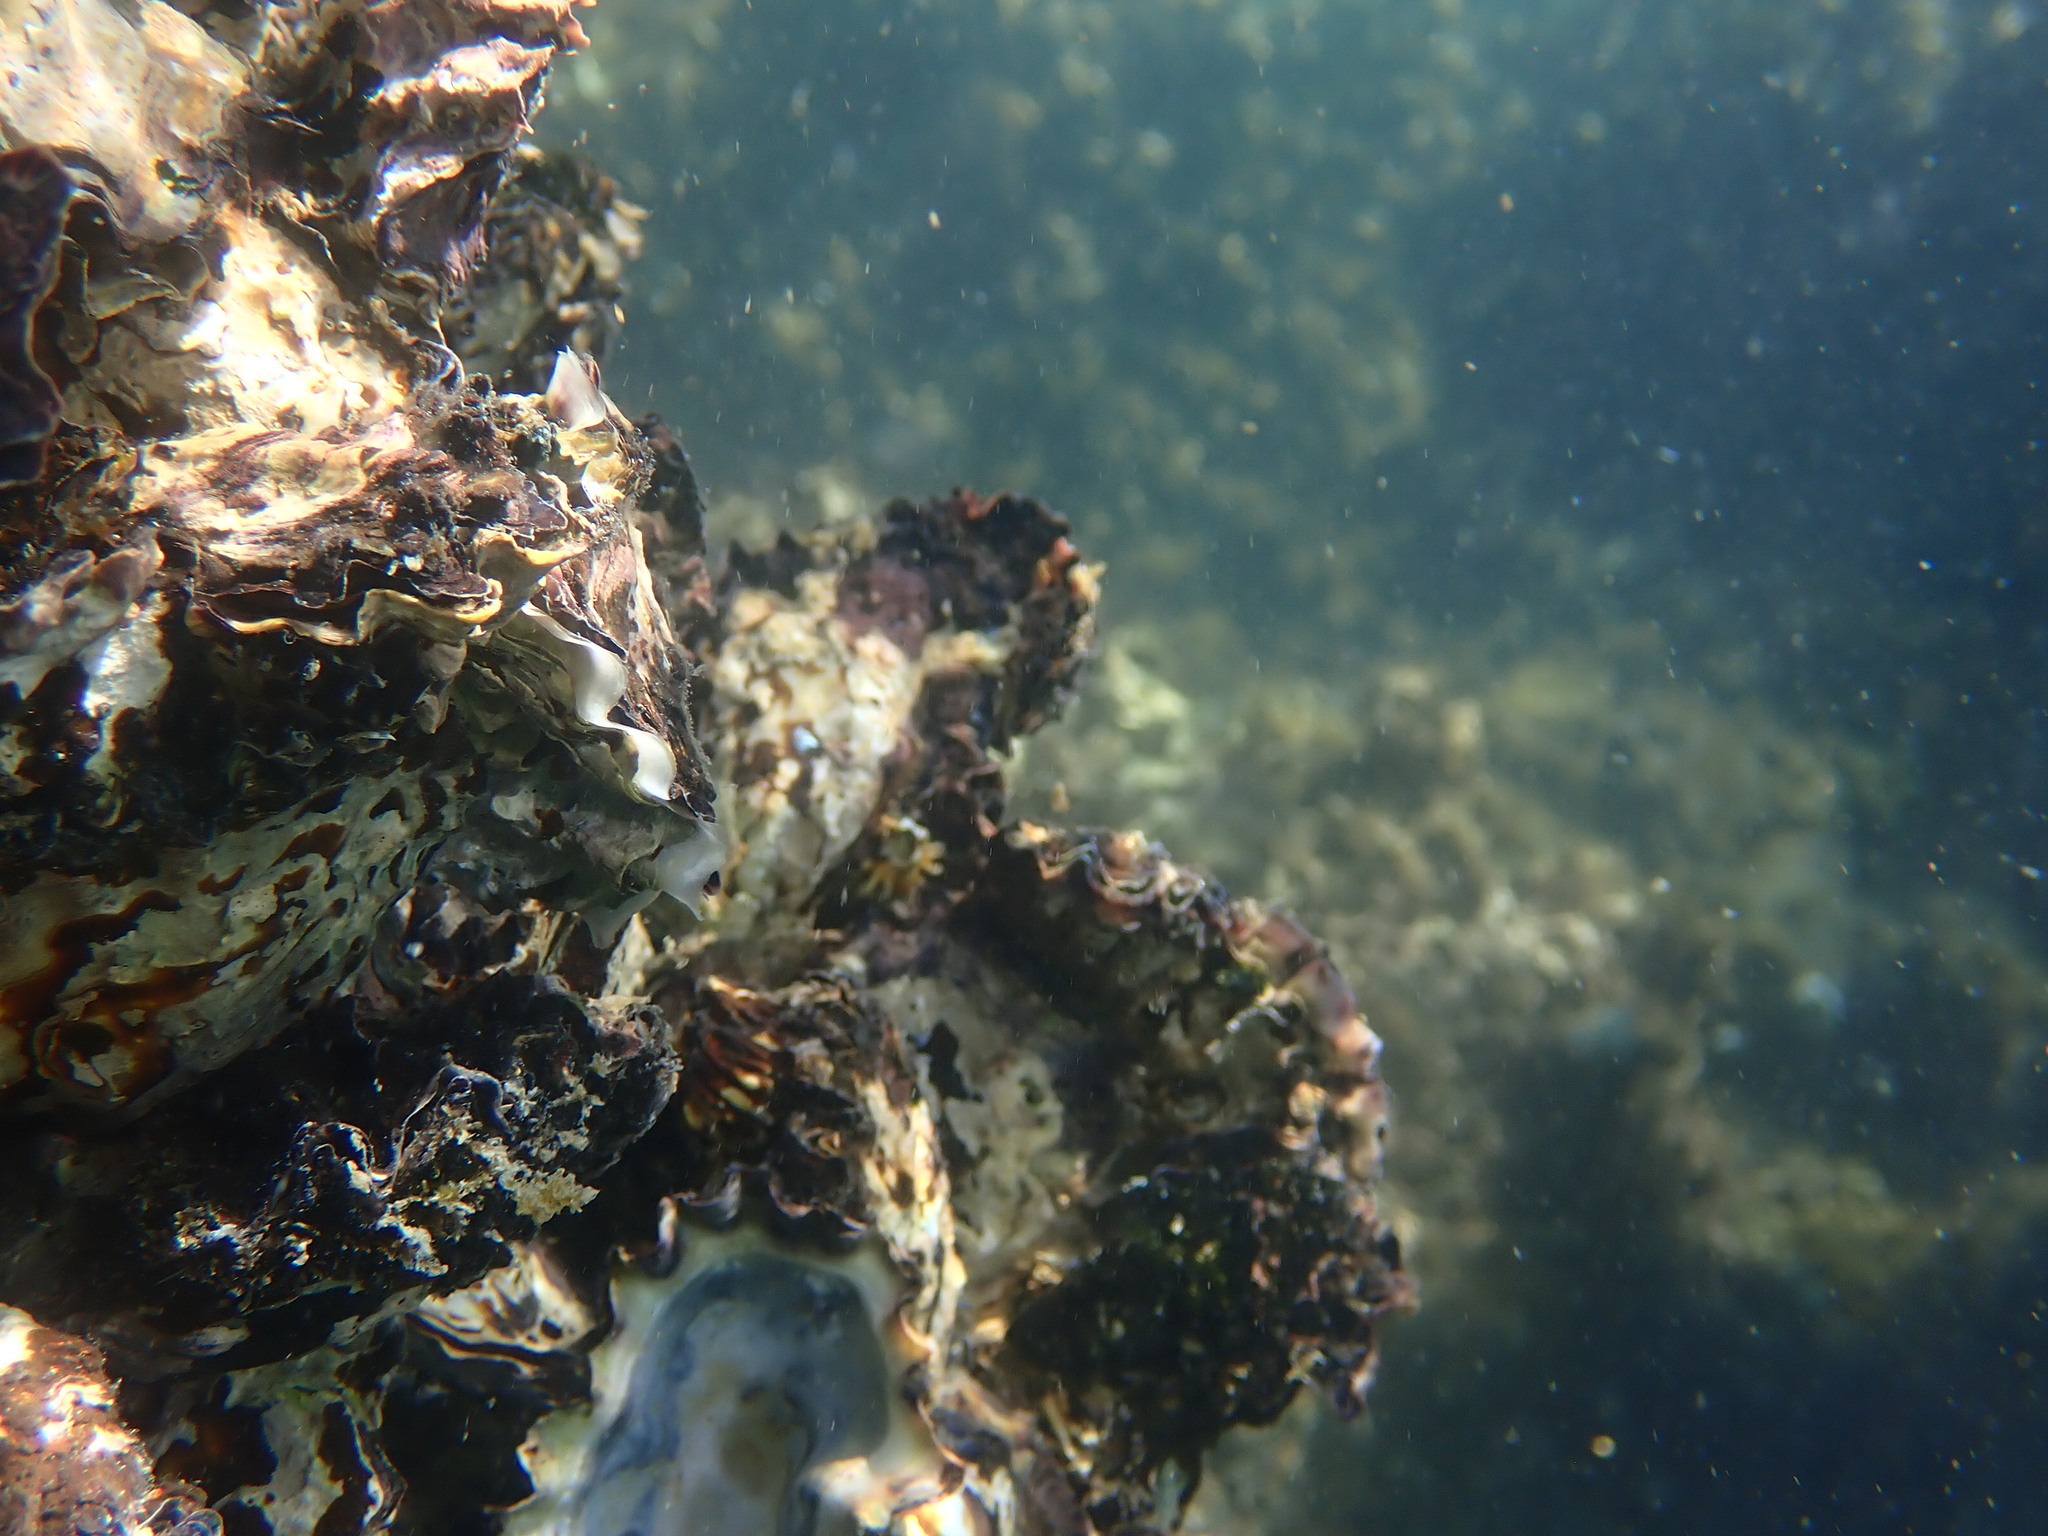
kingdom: Animalia
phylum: Mollusca
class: Bivalvia
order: Ostreida
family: Ostreidae
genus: Saccostrea
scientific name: Saccostrea glomerata
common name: Sydney cupped oyster
